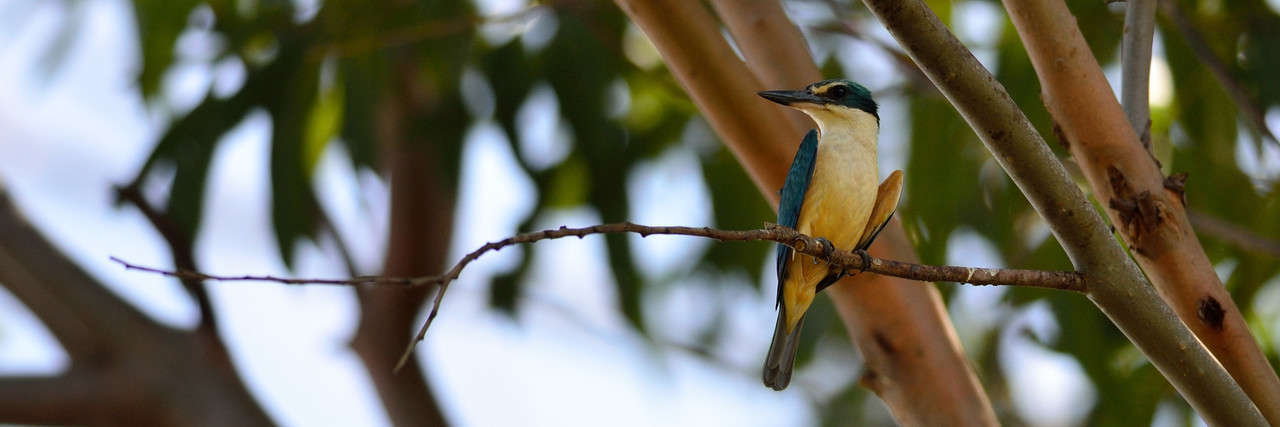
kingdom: Animalia
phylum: Chordata
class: Aves
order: Coraciiformes
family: Alcedinidae
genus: Todiramphus
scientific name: Todiramphus sanctus
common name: Sacred kingfisher
